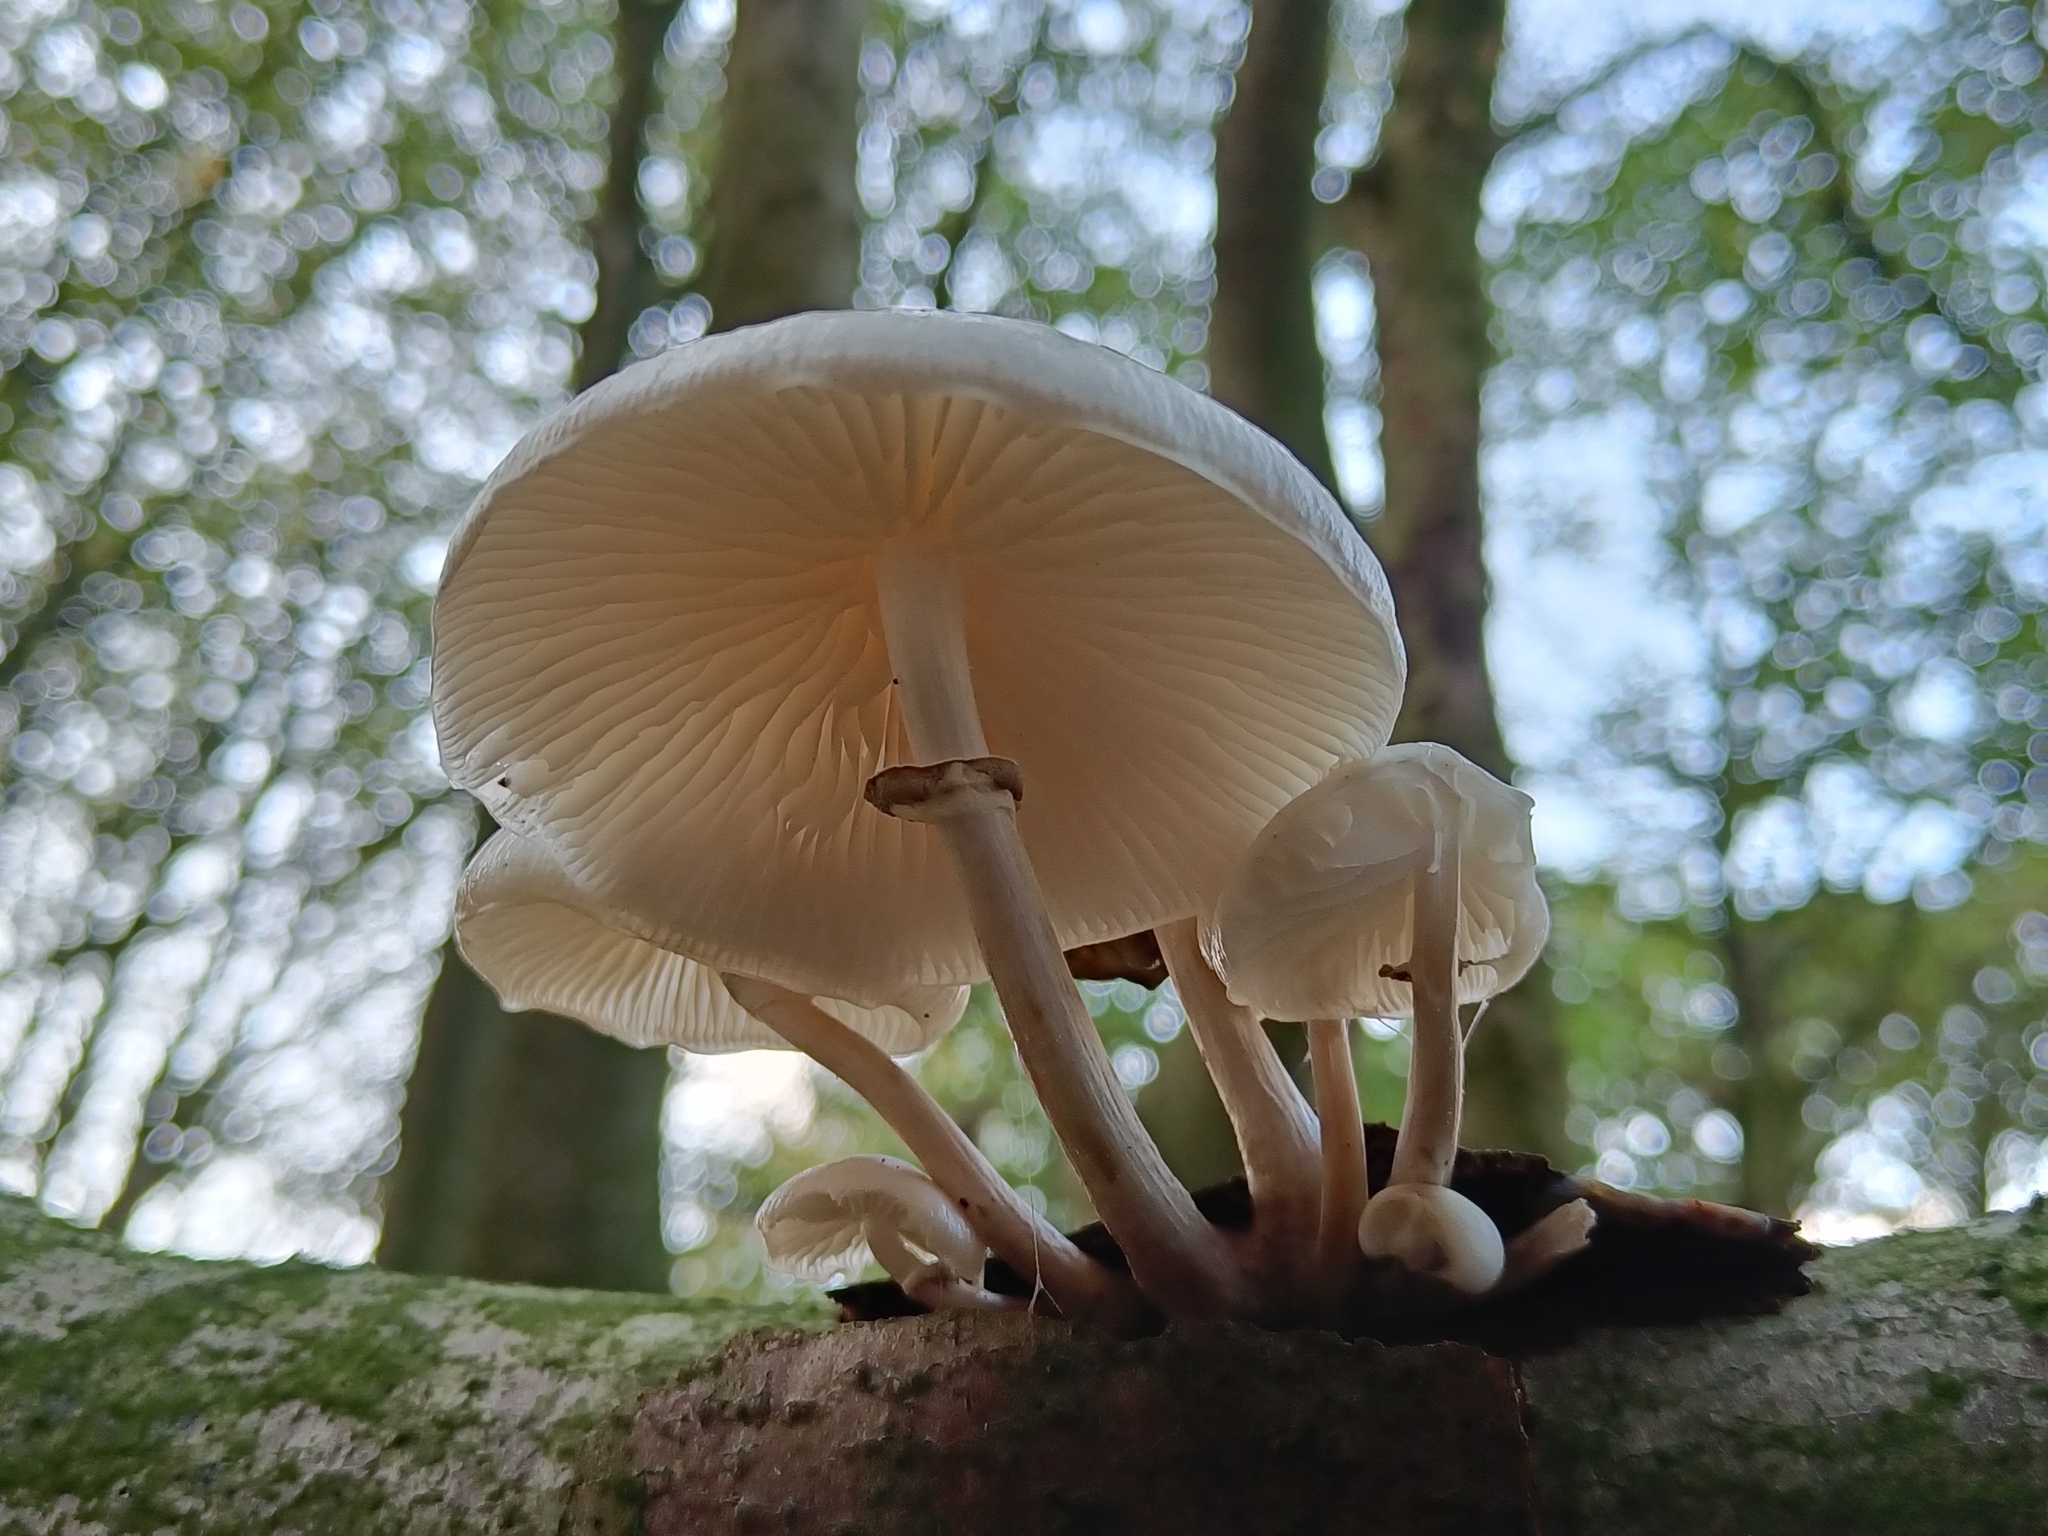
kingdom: Fungi
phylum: Basidiomycota
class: Agaricomycetes
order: Agaricales
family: Physalacriaceae
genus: Mucidula
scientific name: Mucidula mucida
